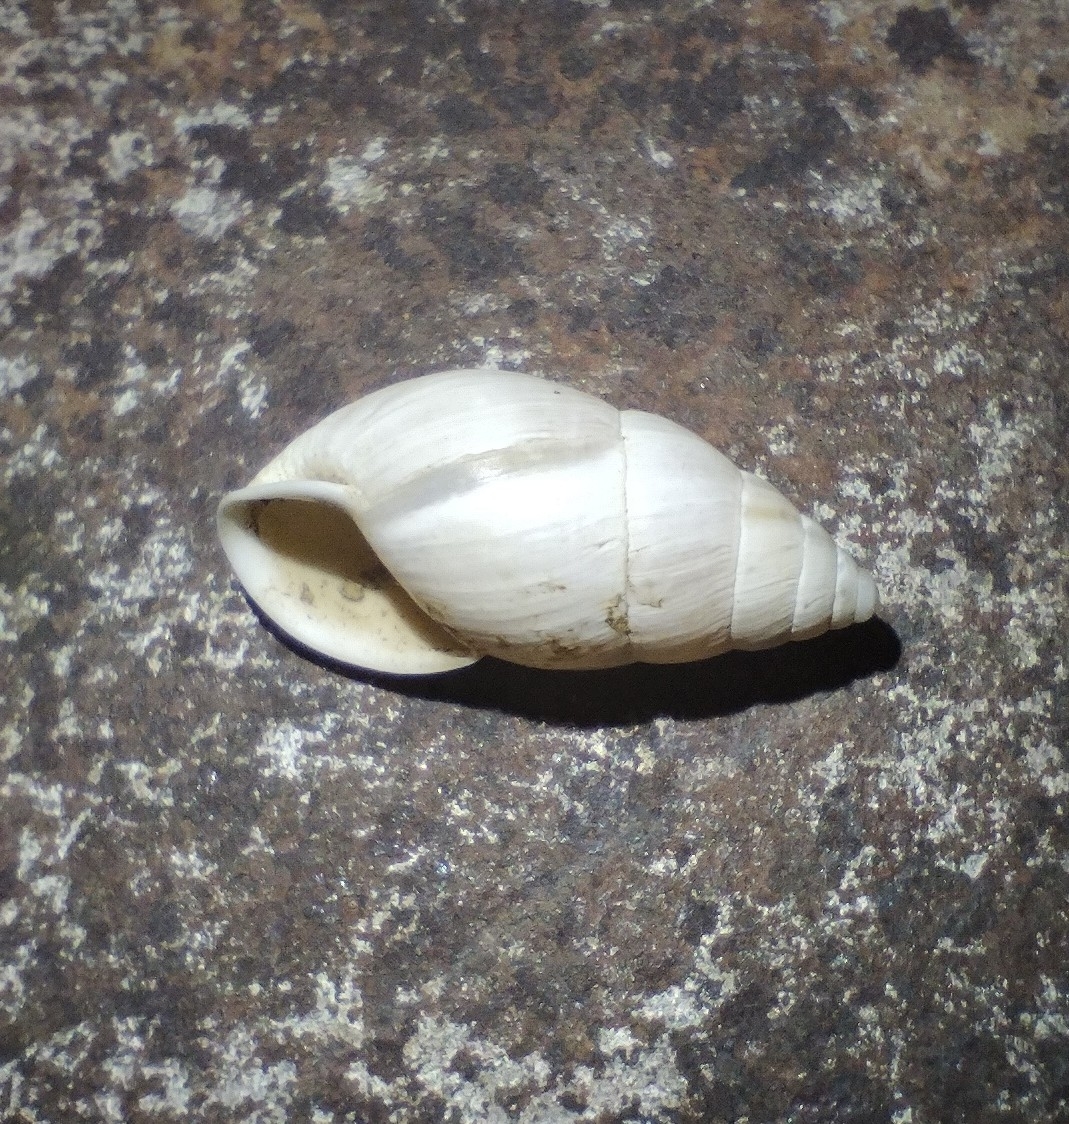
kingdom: Animalia
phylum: Mollusca
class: Gastropoda
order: Stylommatophora
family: Enidae
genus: Zebrina
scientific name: Zebrina detrita
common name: Large bulin
